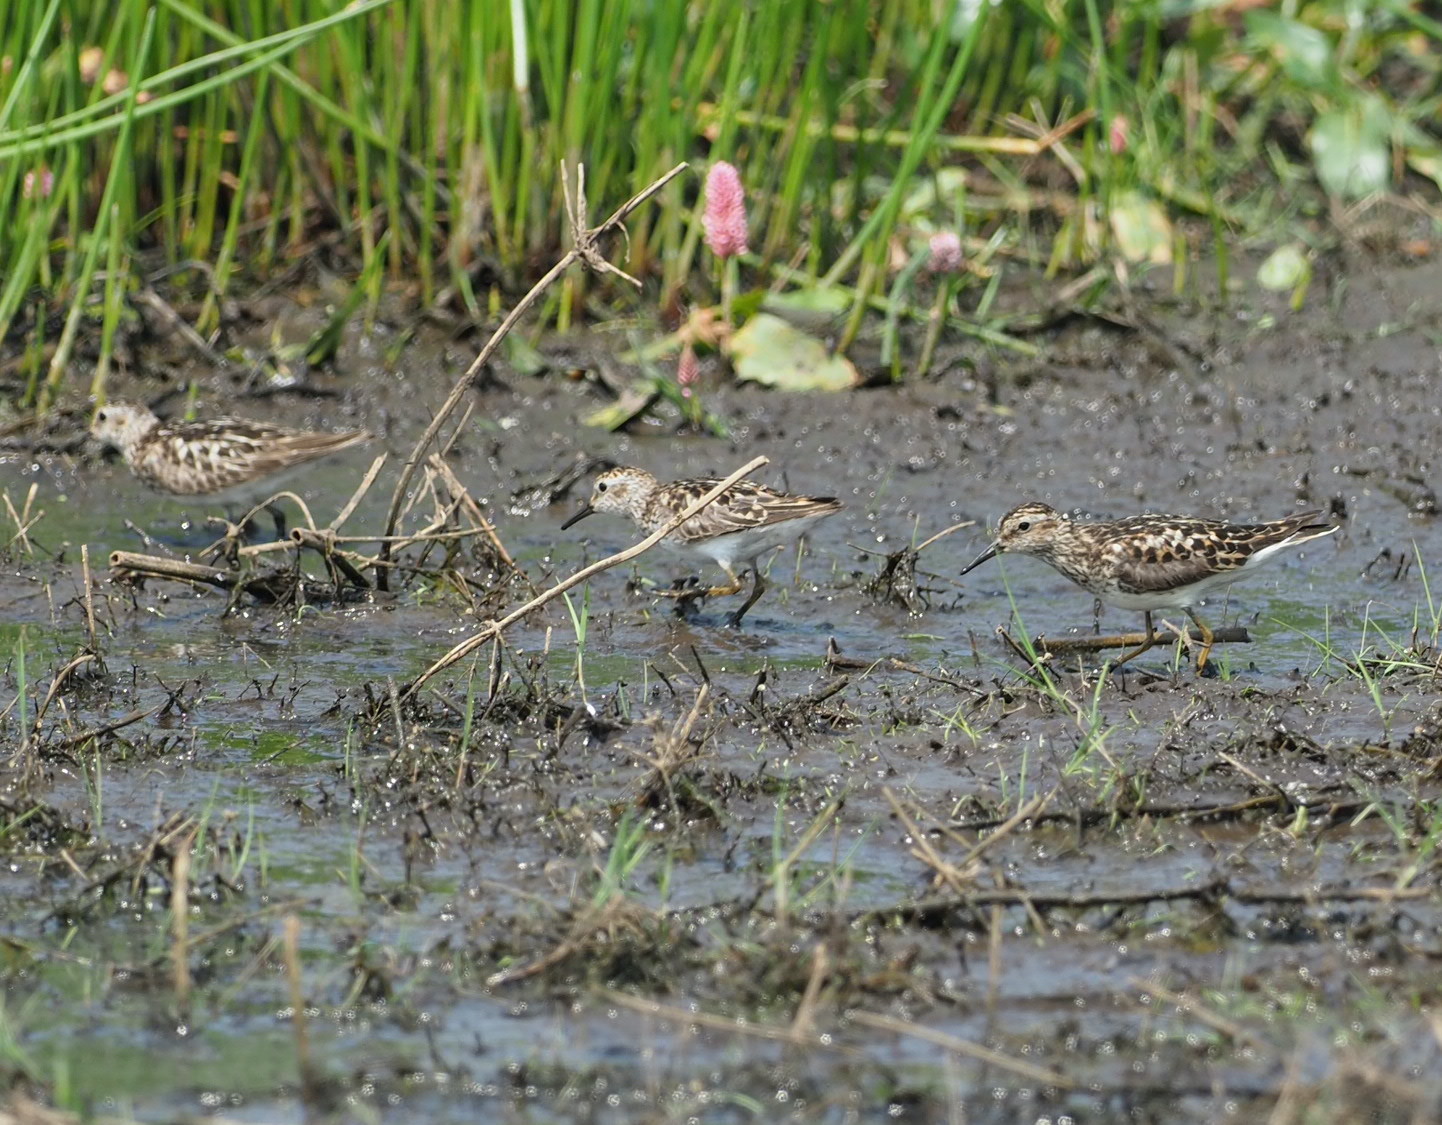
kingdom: Animalia
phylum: Chordata
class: Aves
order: Charadriiformes
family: Scolopacidae
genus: Calidris
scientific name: Calidris minutilla
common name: Least sandpiper
